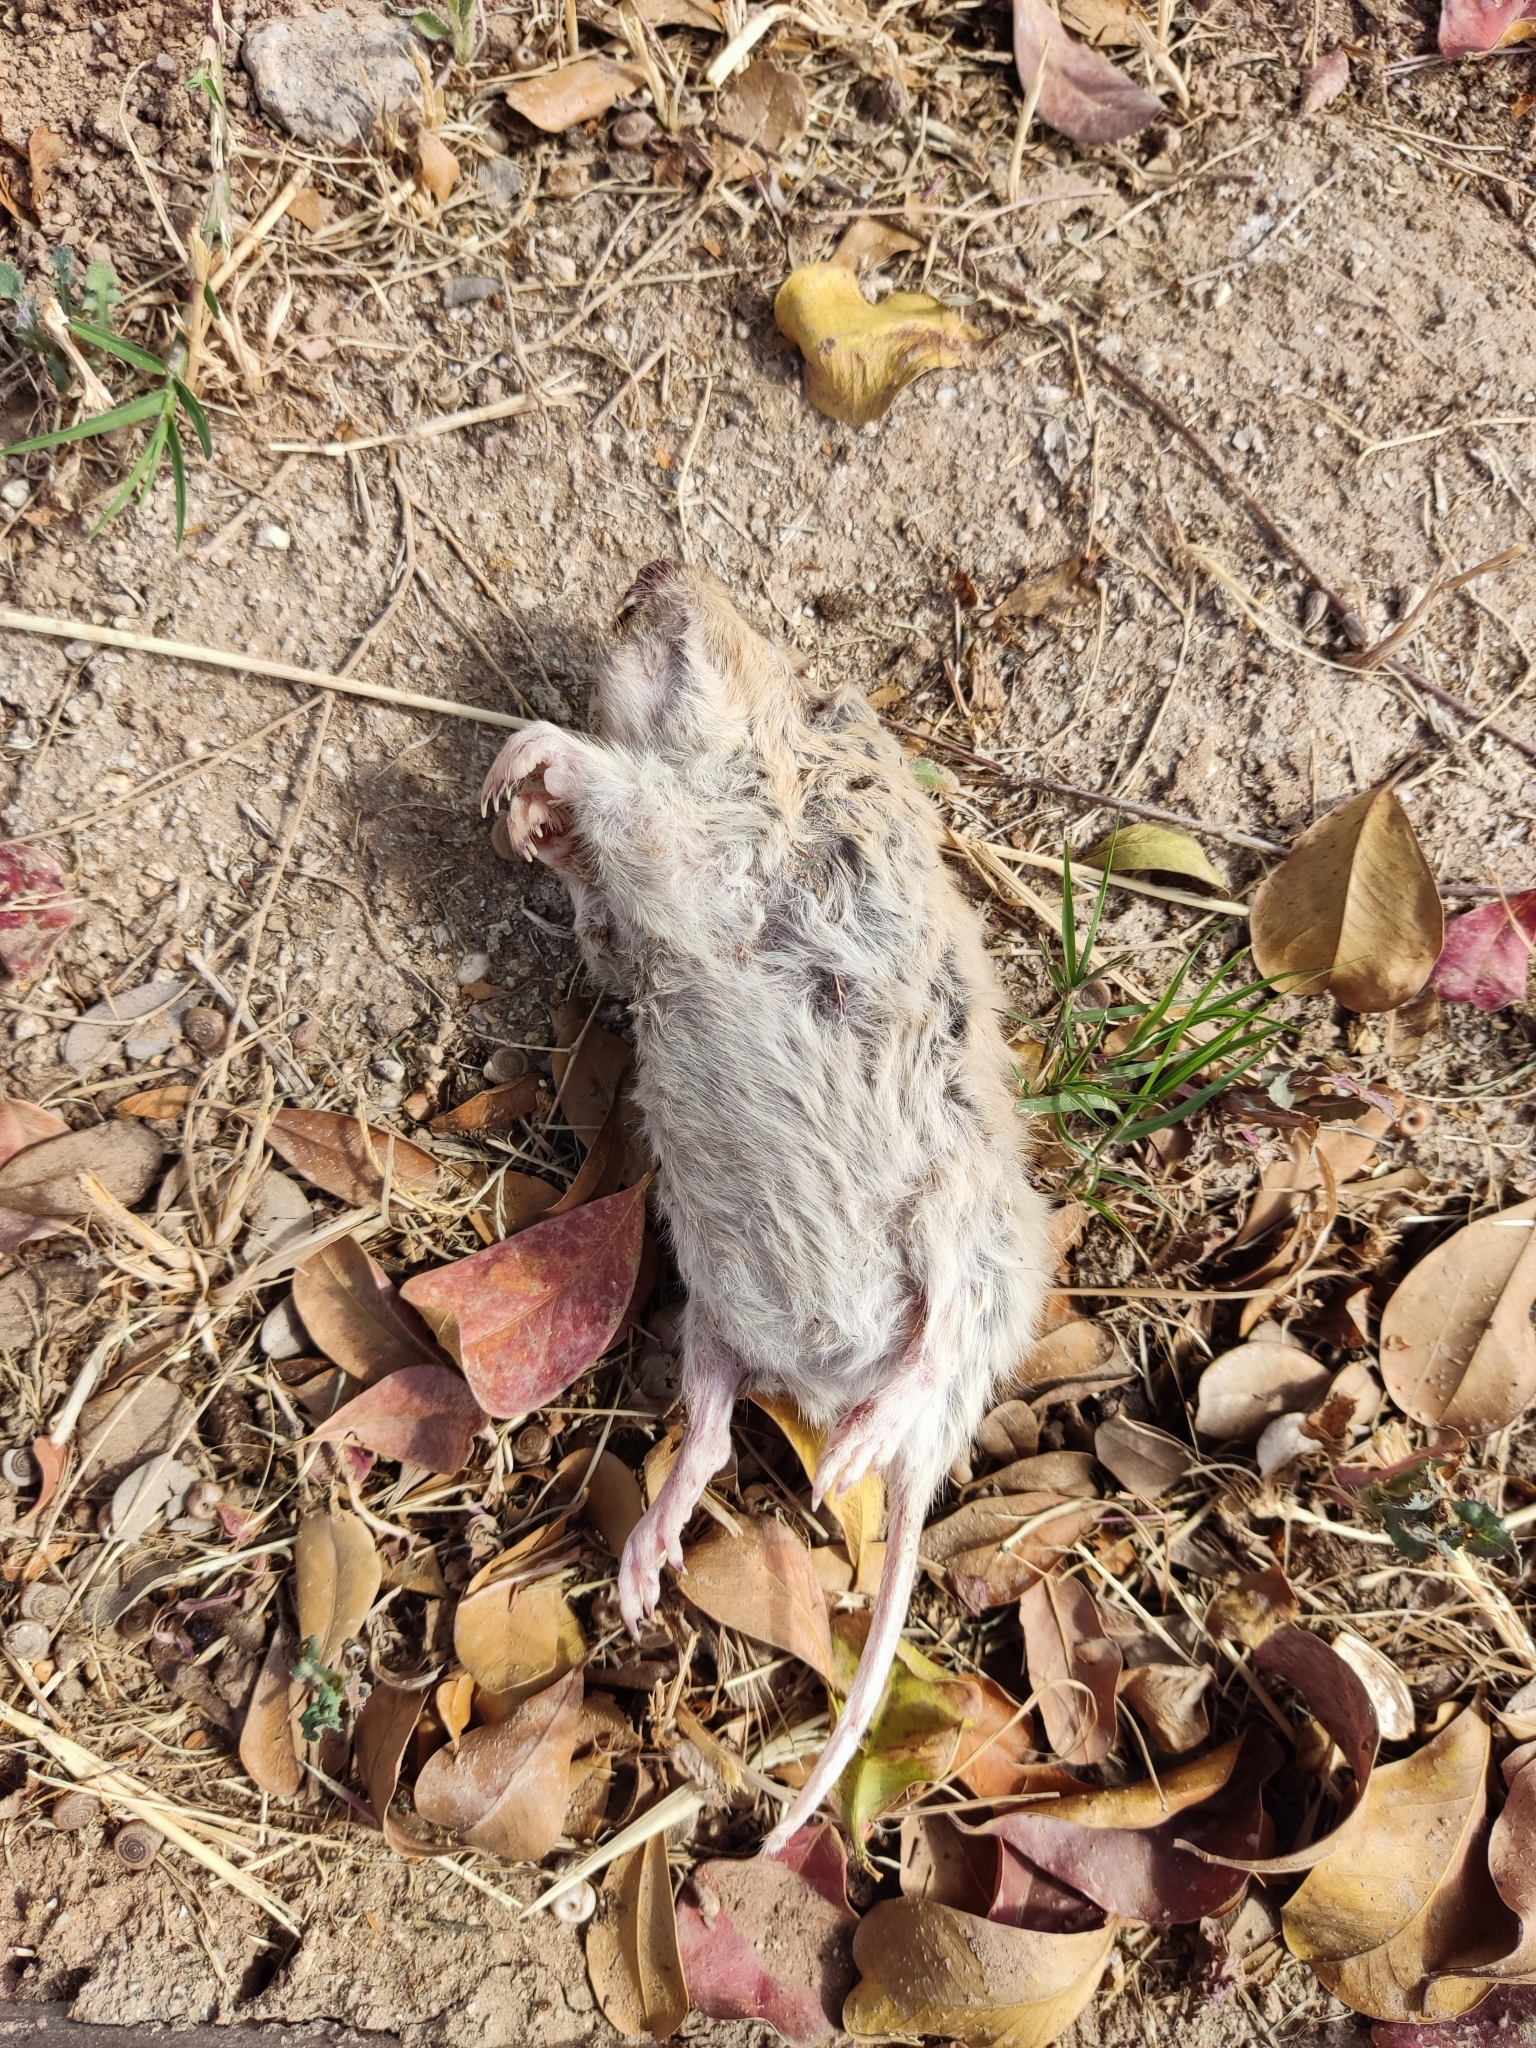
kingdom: Animalia
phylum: Chordata
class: Mammalia
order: Rodentia
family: Geomyidae
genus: Thomomys
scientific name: Thomomys bottae
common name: Botta's pocket gopher
